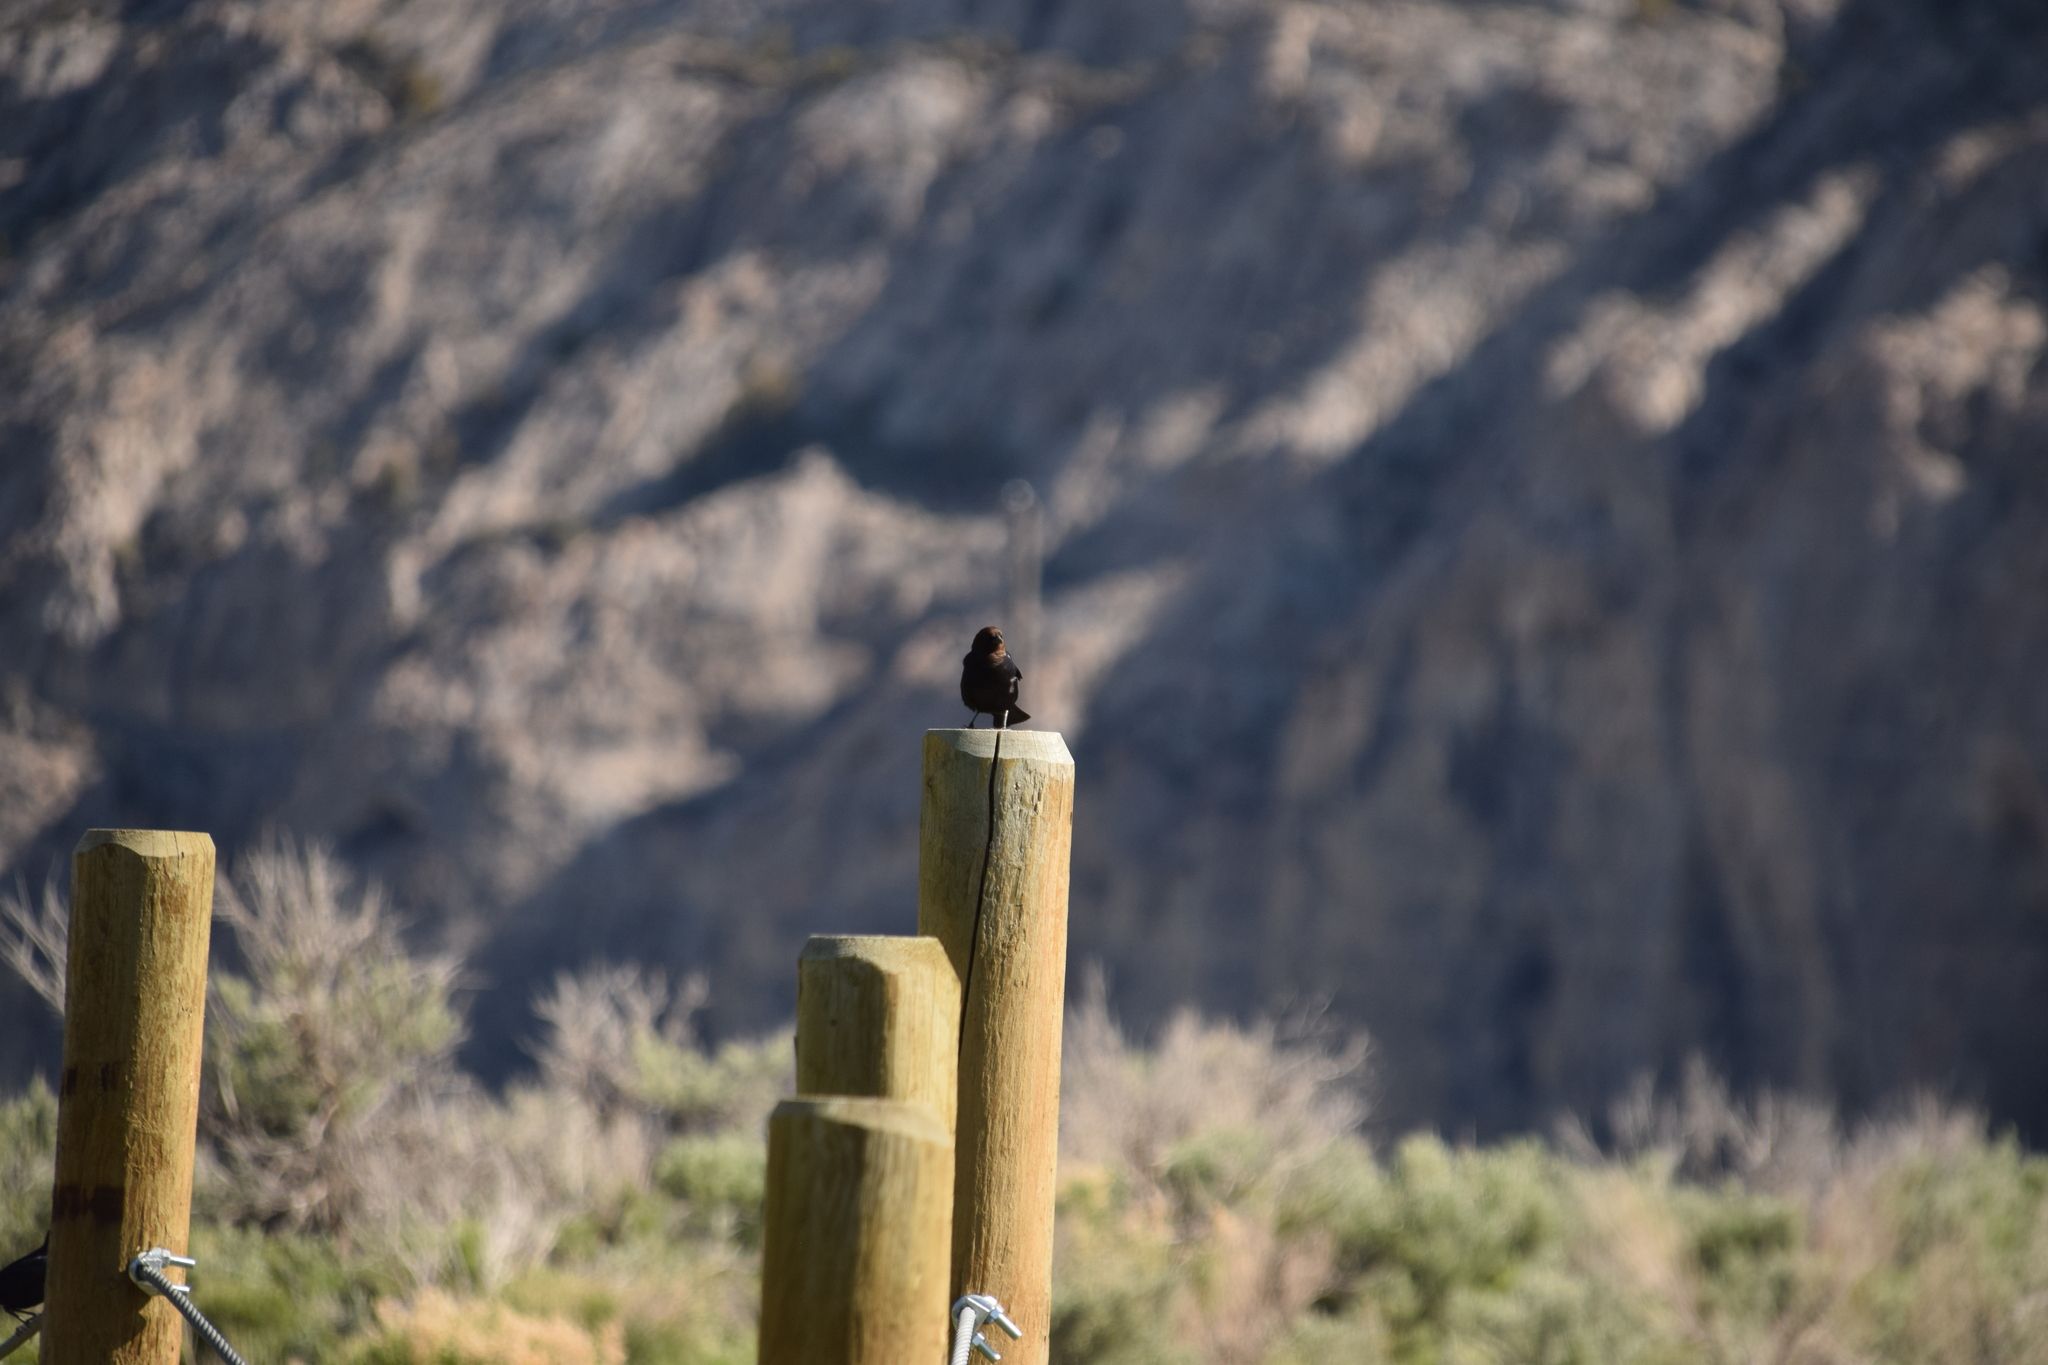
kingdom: Animalia
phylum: Chordata
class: Aves
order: Passeriformes
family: Icteridae
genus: Molothrus
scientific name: Molothrus ater
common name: Brown-headed cowbird
